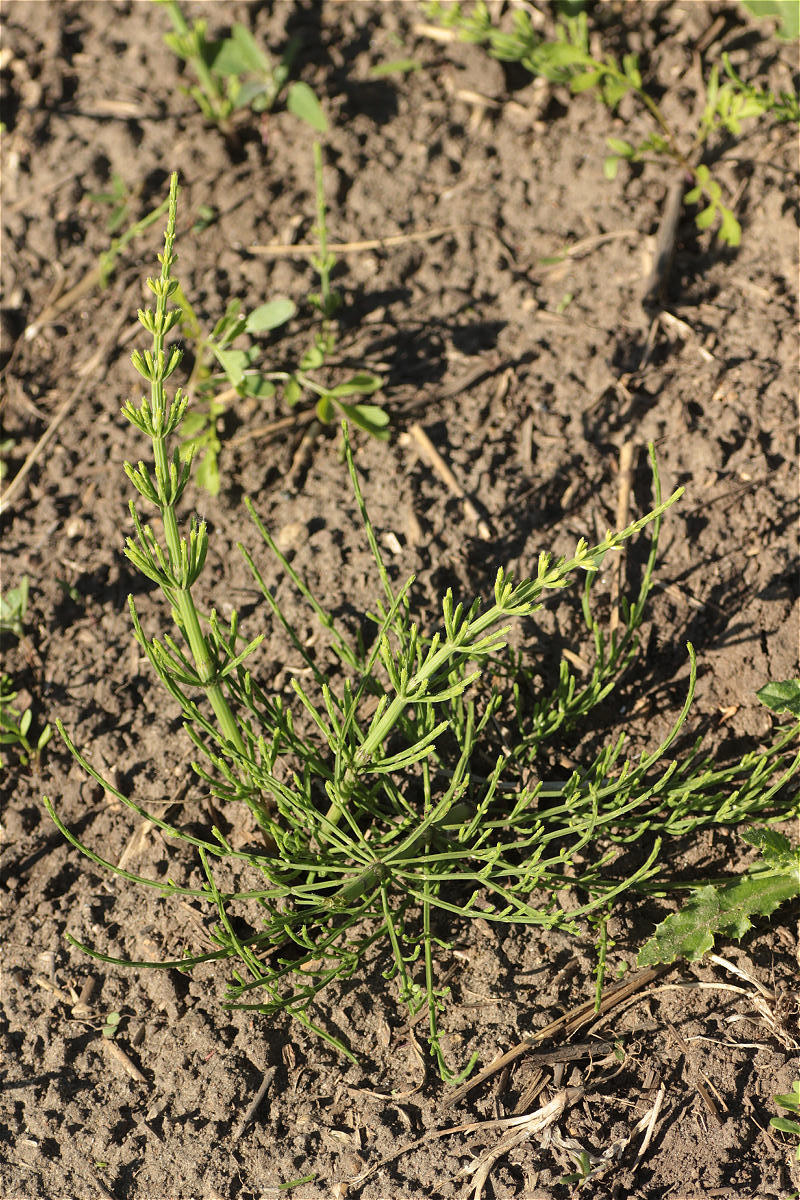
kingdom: Plantae
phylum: Tracheophyta
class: Polypodiopsida
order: Equisetales
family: Equisetaceae
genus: Equisetum
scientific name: Equisetum arvense
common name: Field horsetail
